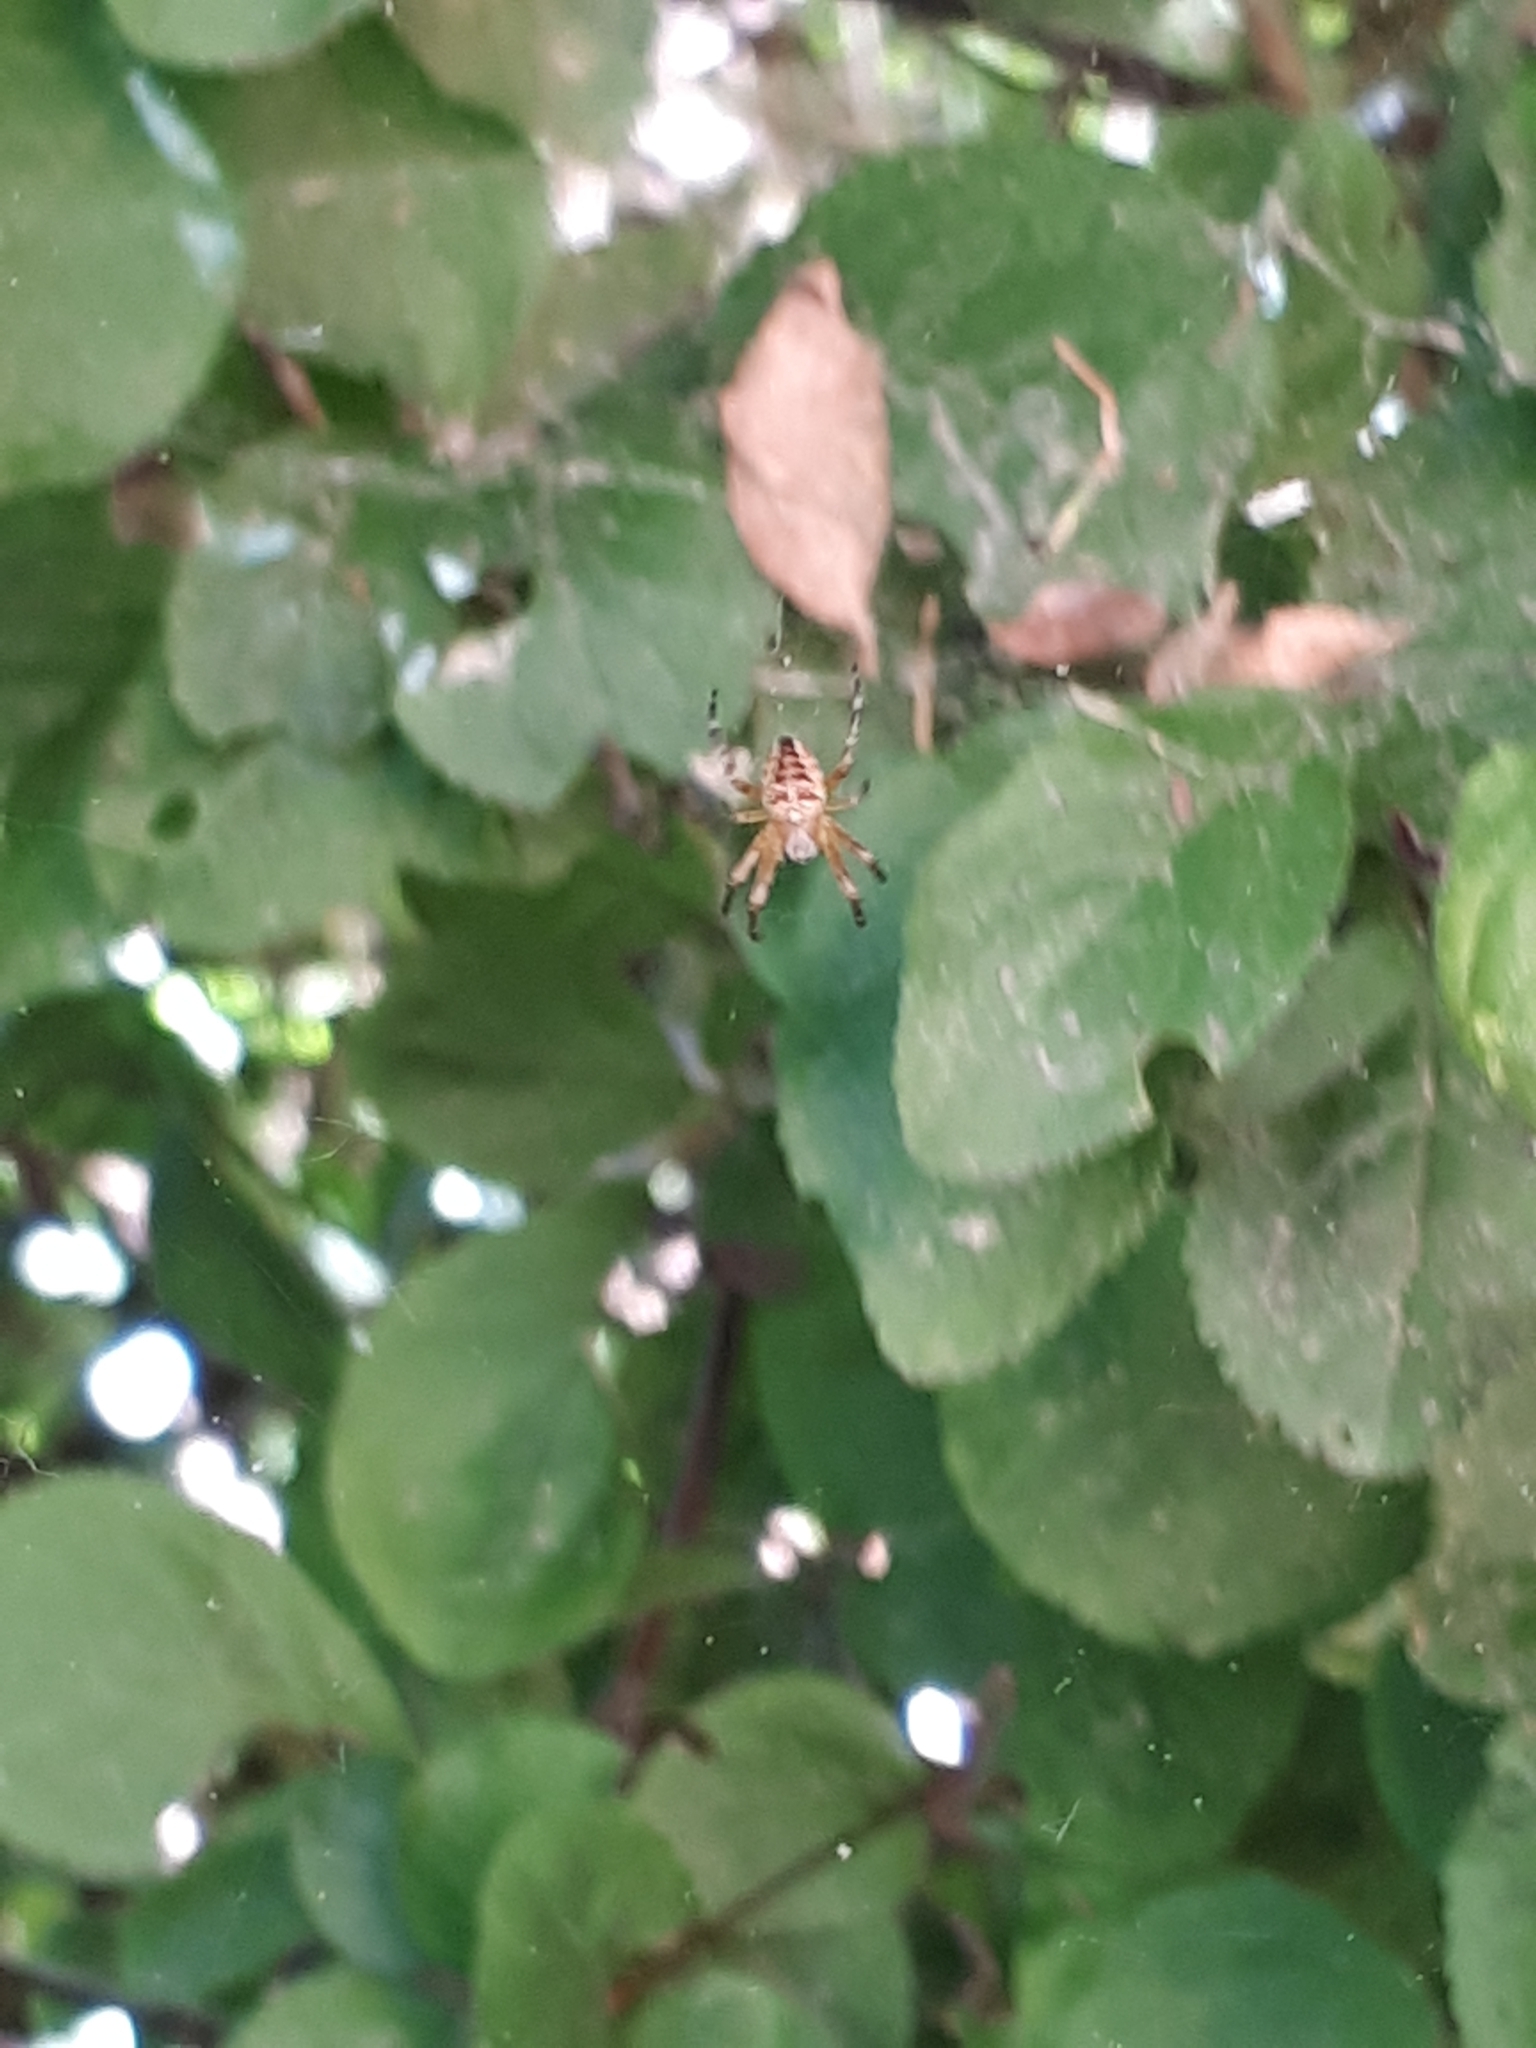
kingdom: Animalia
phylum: Arthropoda
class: Arachnida
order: Araneae
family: Araneidae
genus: Araneus
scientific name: Araneus diadematus
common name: Cross orbweaver
